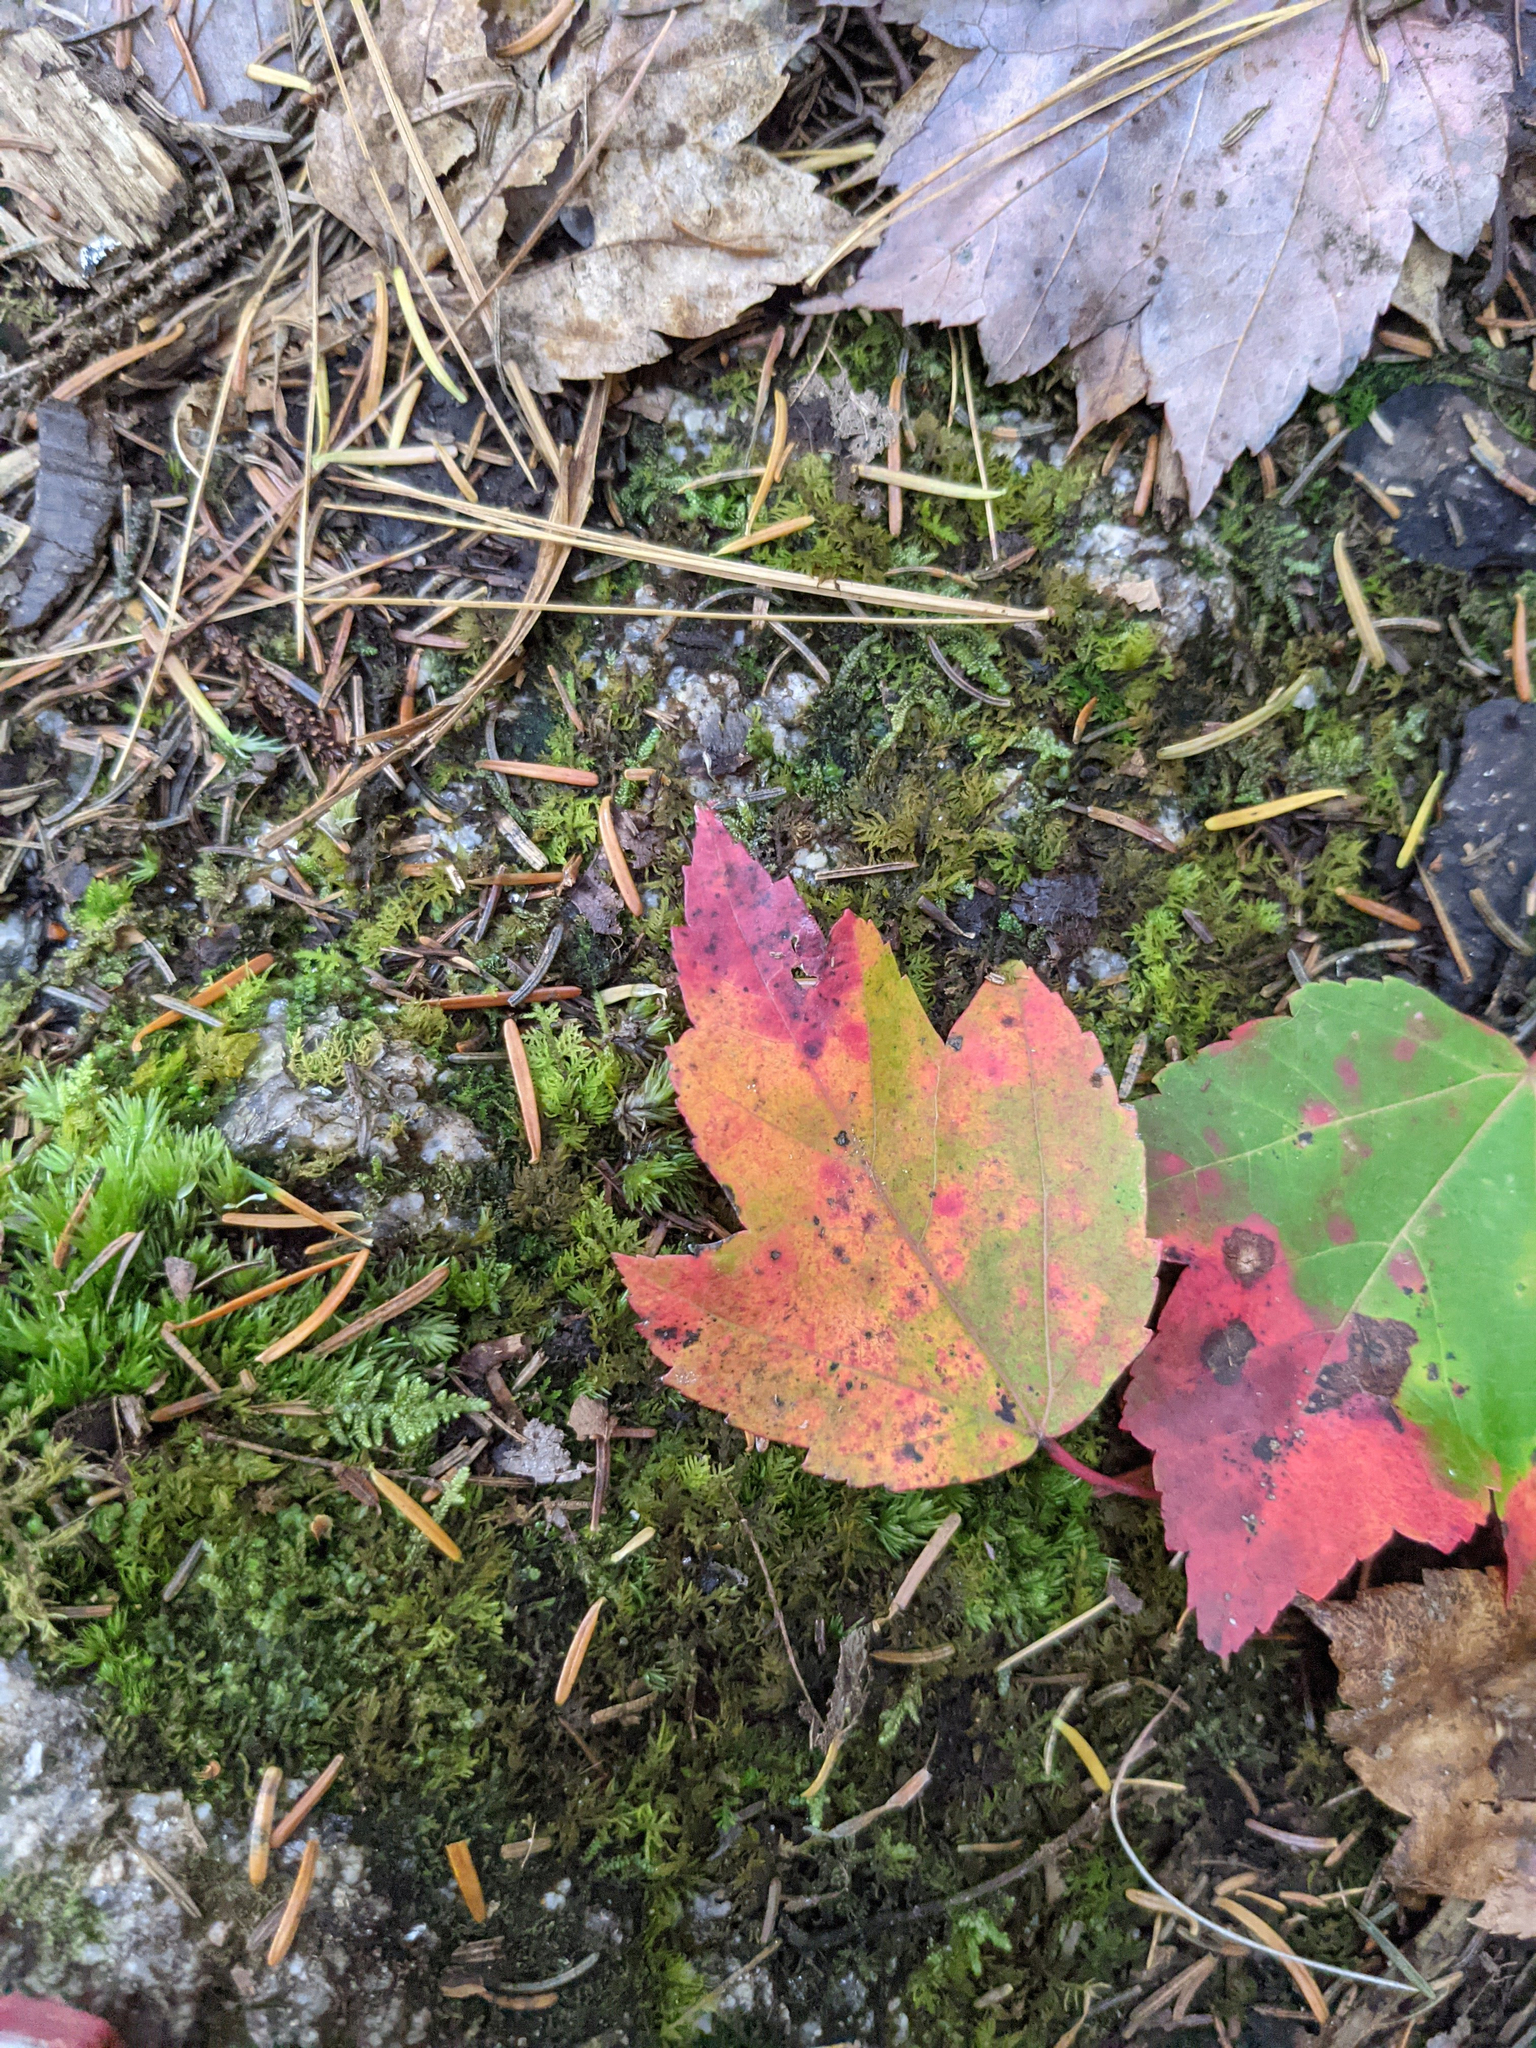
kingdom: Plantae
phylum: Tracheophyta
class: Magnoliopsida
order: Sapindales
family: Sapindaceae
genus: Acer
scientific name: Acer rubrum
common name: Red maple
